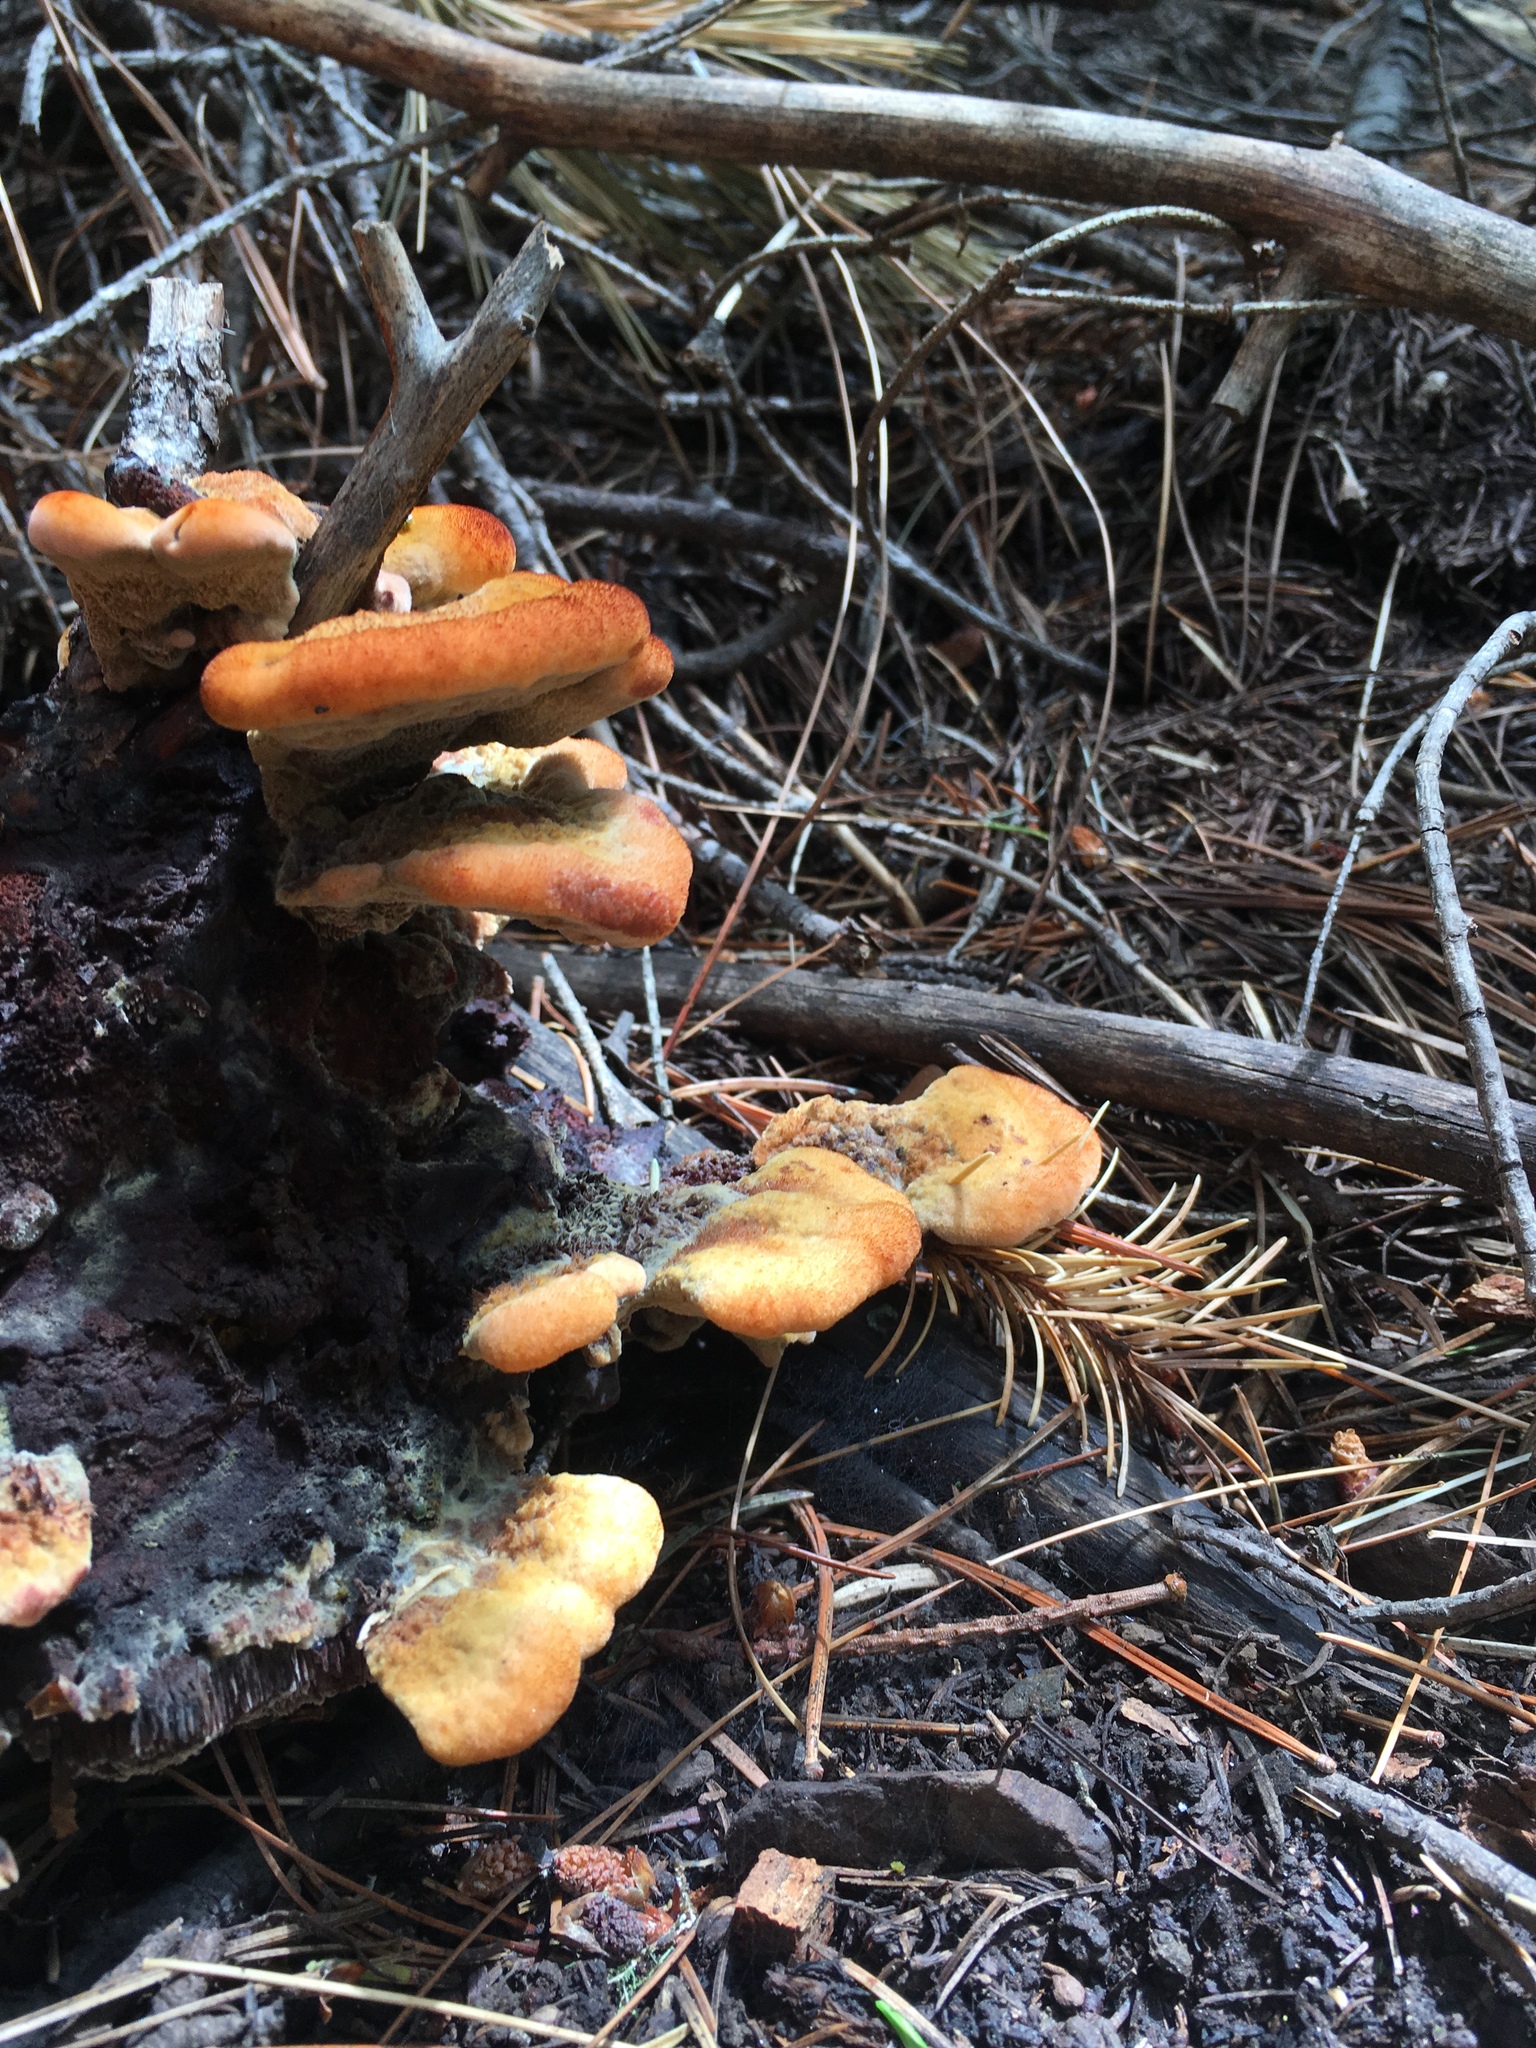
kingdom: Fungi
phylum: Basidiomycota
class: Agaricomycetes
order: Polyporales
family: Laetiporaceae
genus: Phaeolus
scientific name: Phaeolus schweinitzii
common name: Dyer's mazegill
